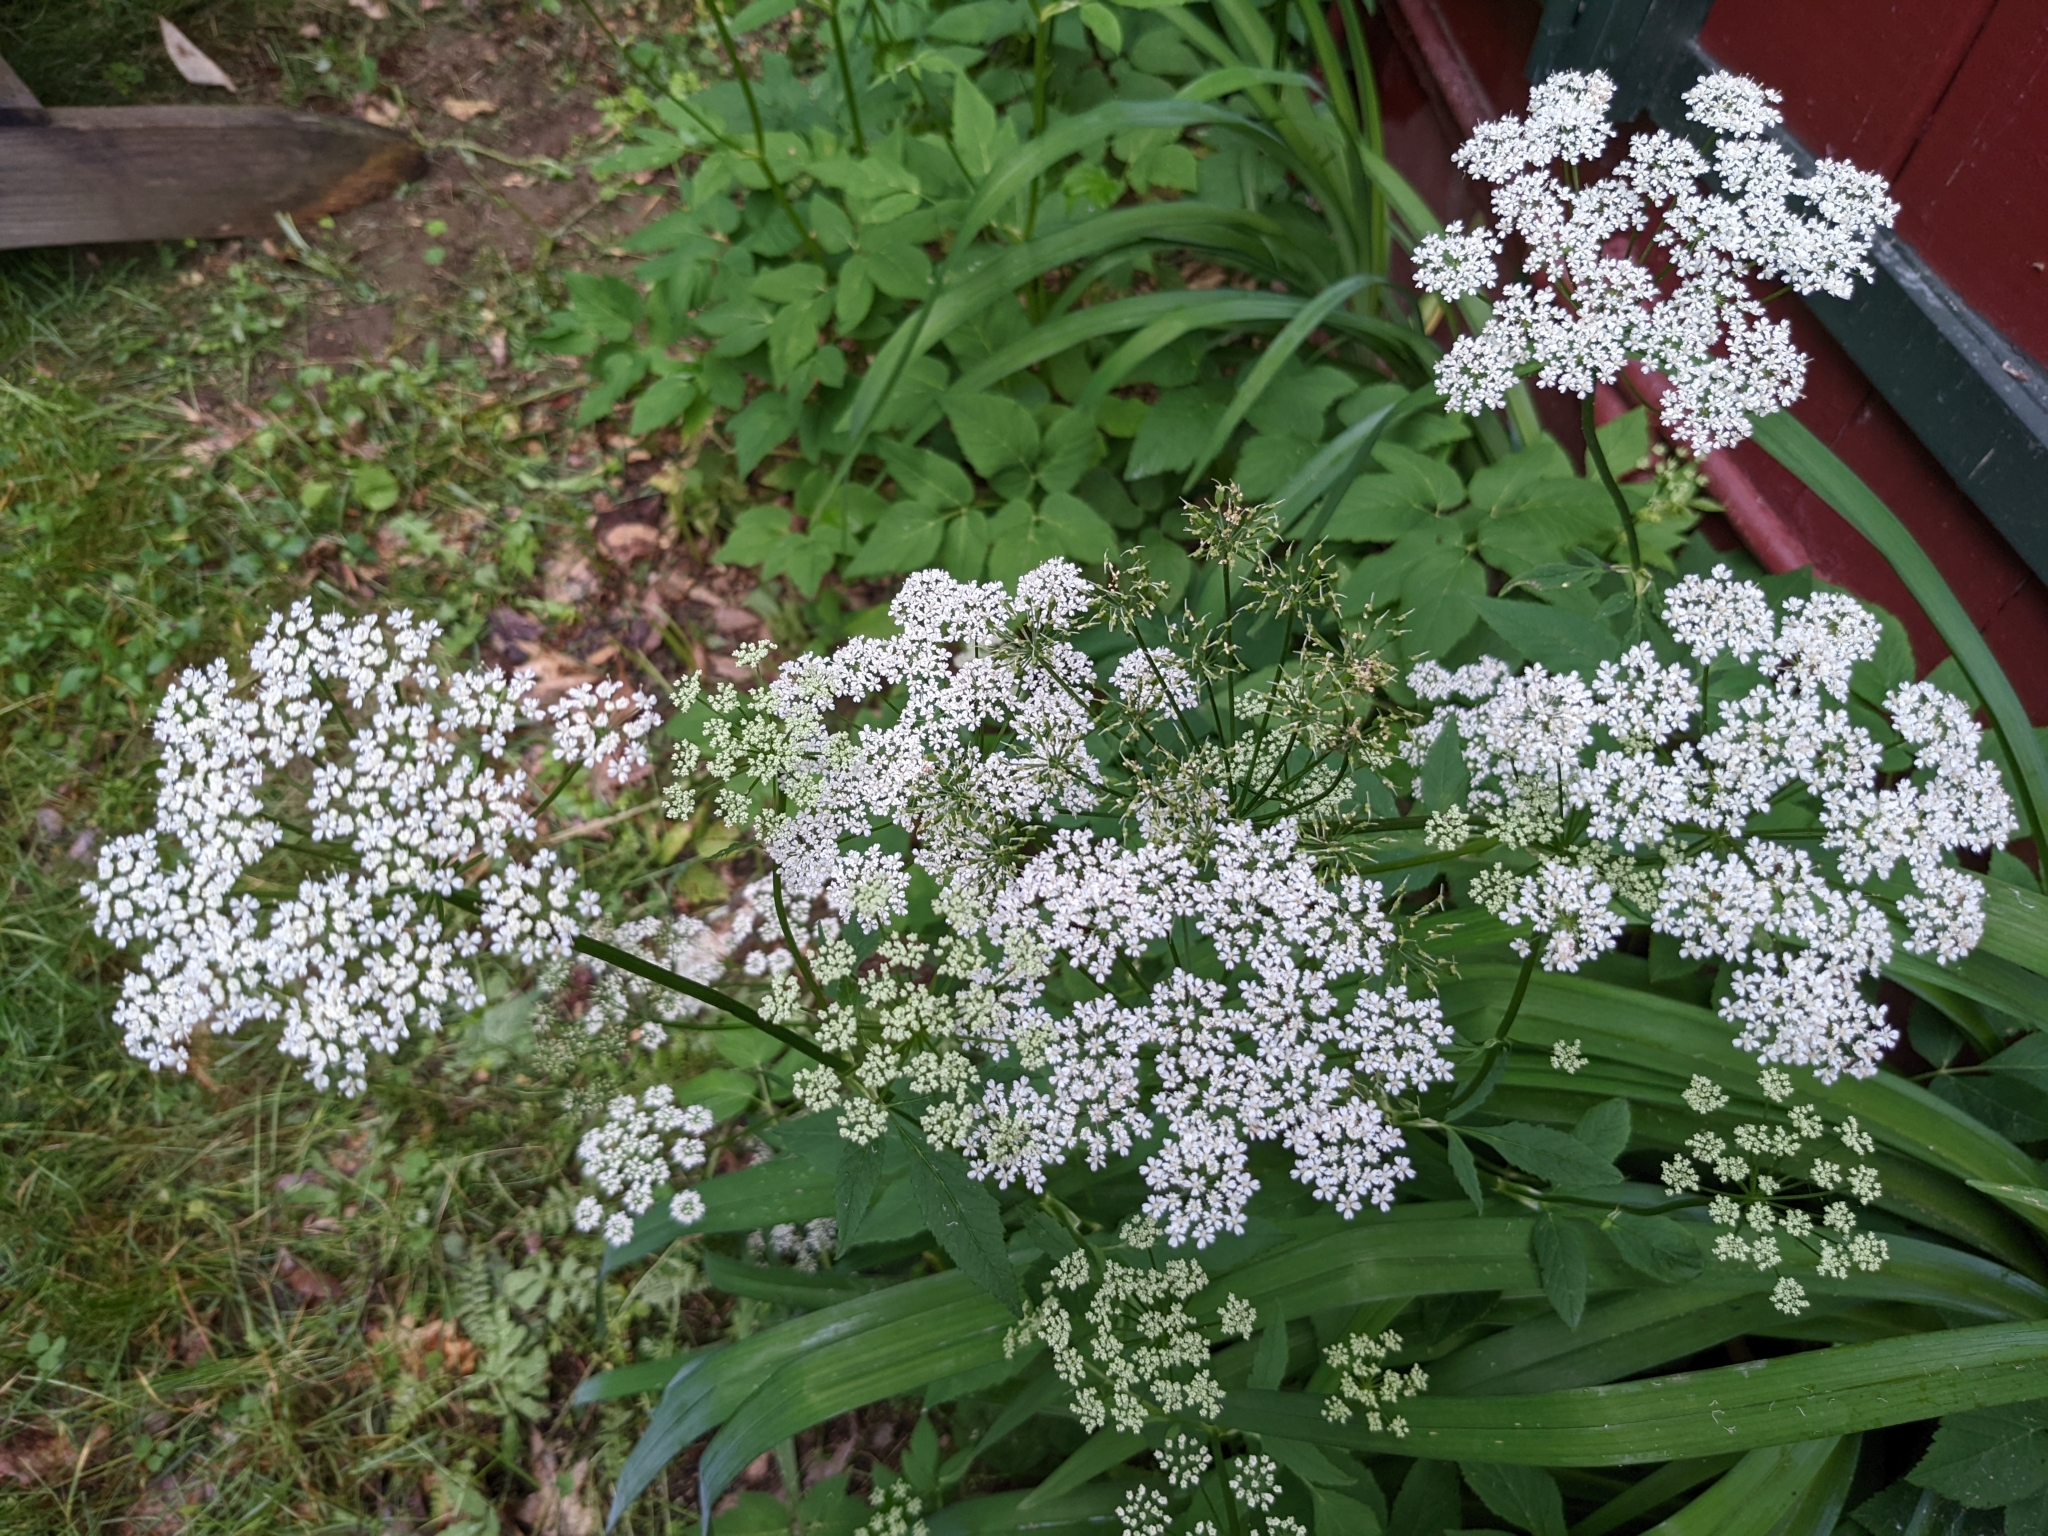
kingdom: Plantae
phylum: Tracheophyta
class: Magnoliopsida
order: Apiales
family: Apiaceae
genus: Aegopodium
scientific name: Aegopodium podagraria
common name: Ground-elder
